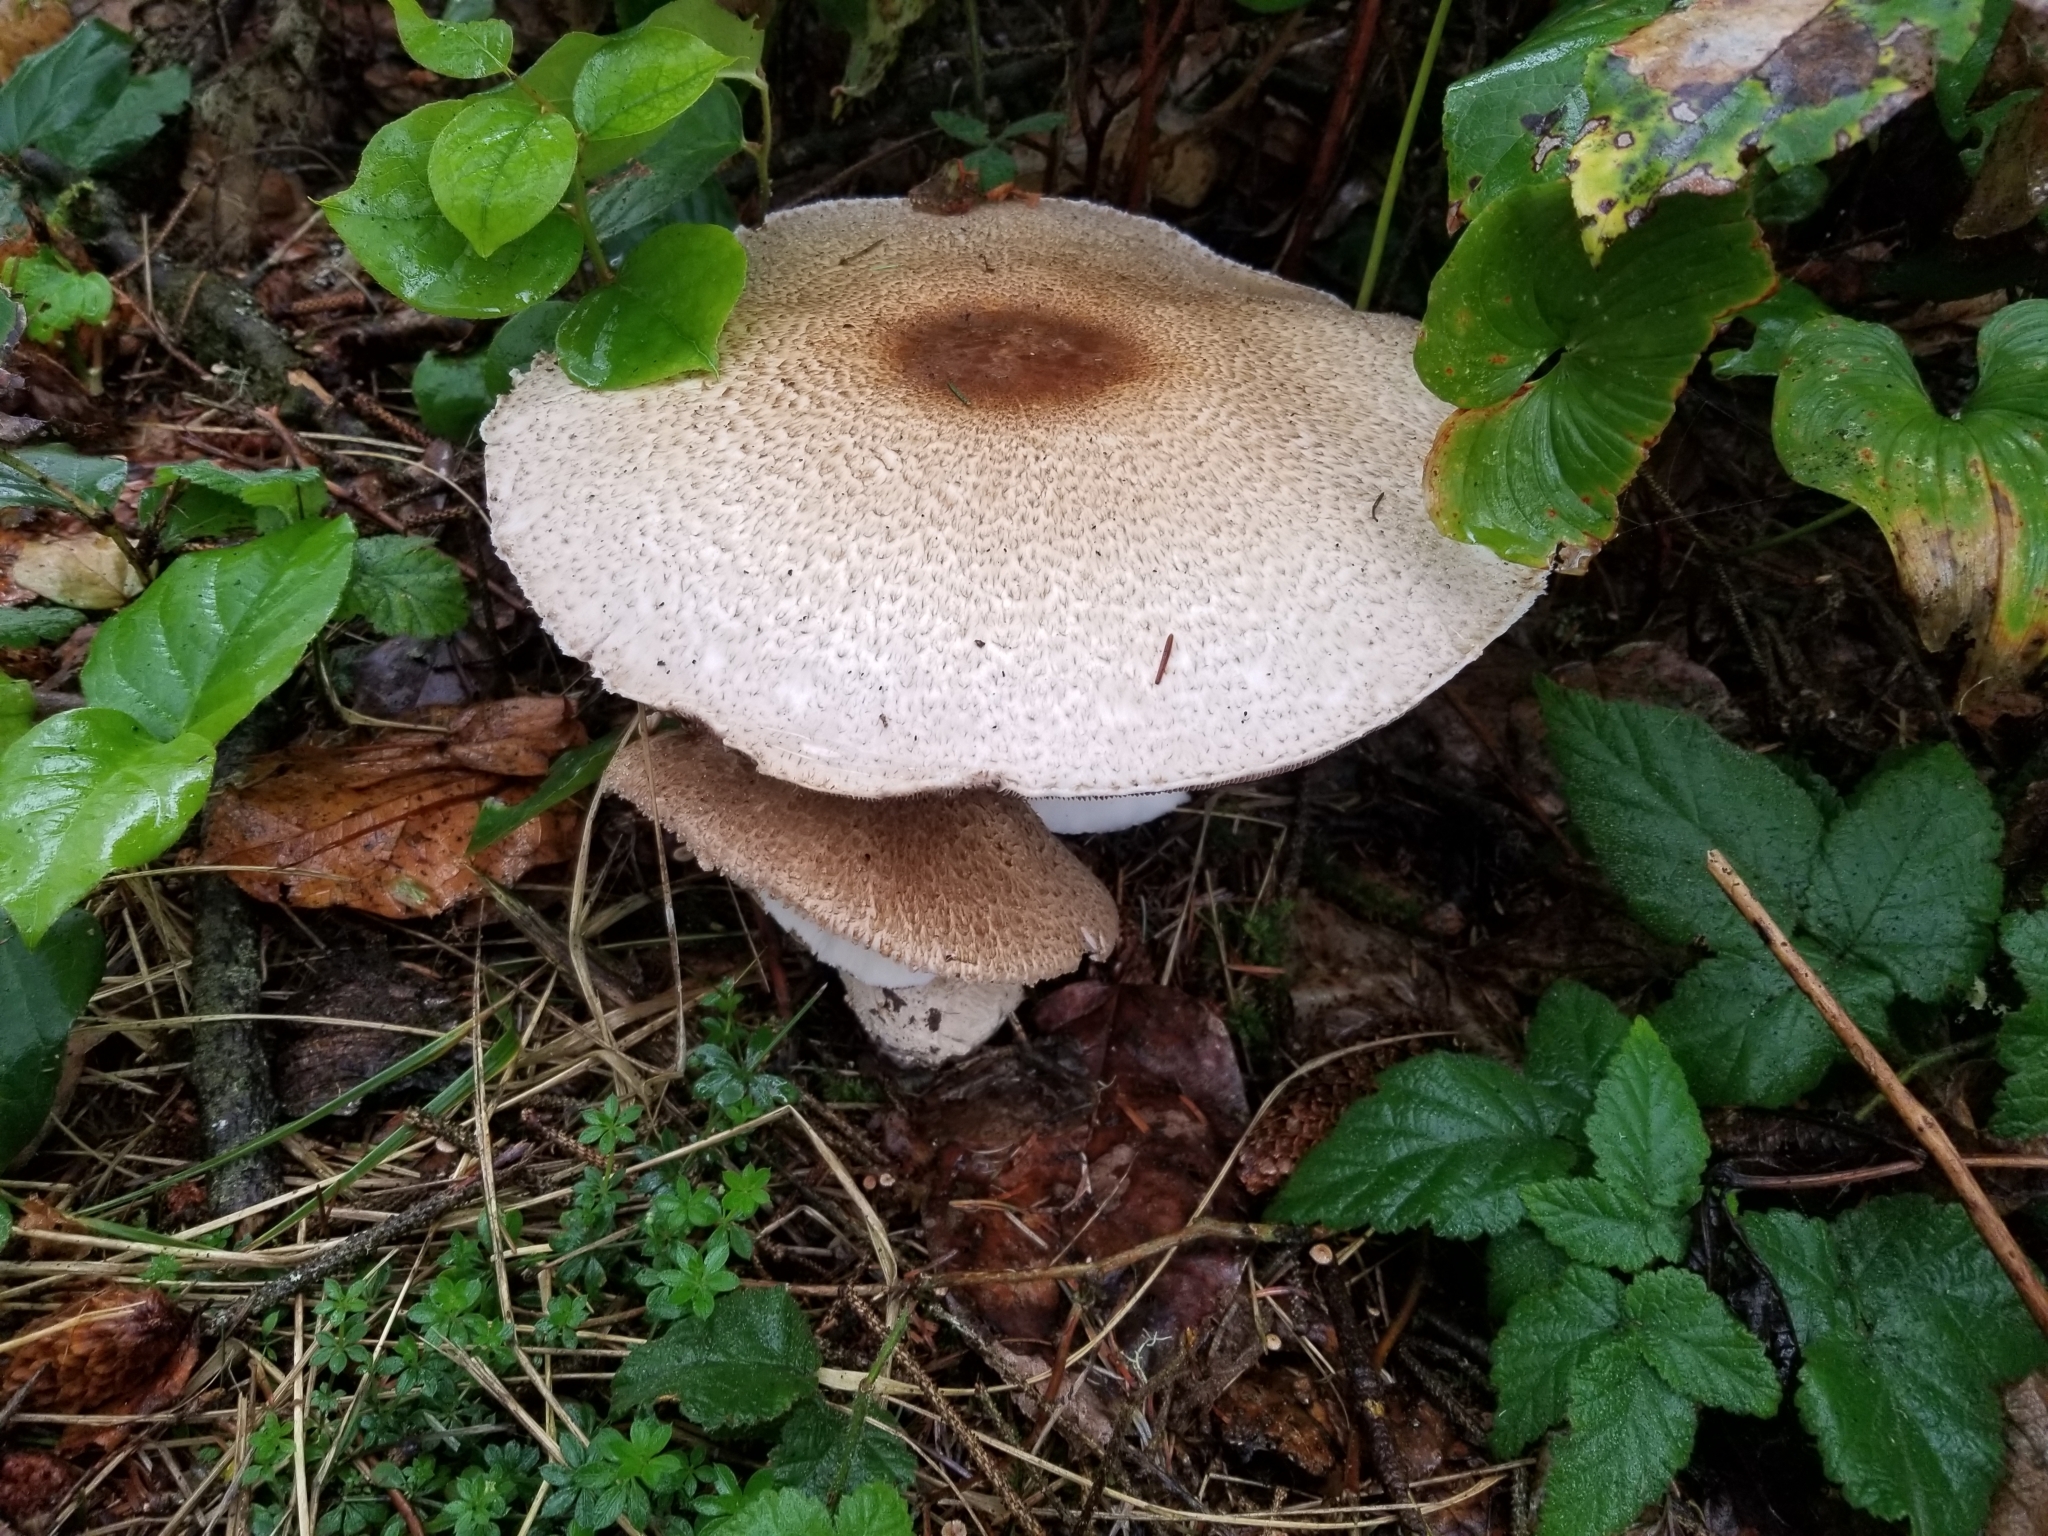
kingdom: Fungi
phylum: Basidiomycota
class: Agaricomycetes
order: Agaricales
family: Agaricaceae
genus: Agaricus
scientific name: Agaricus augustus
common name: Prince
